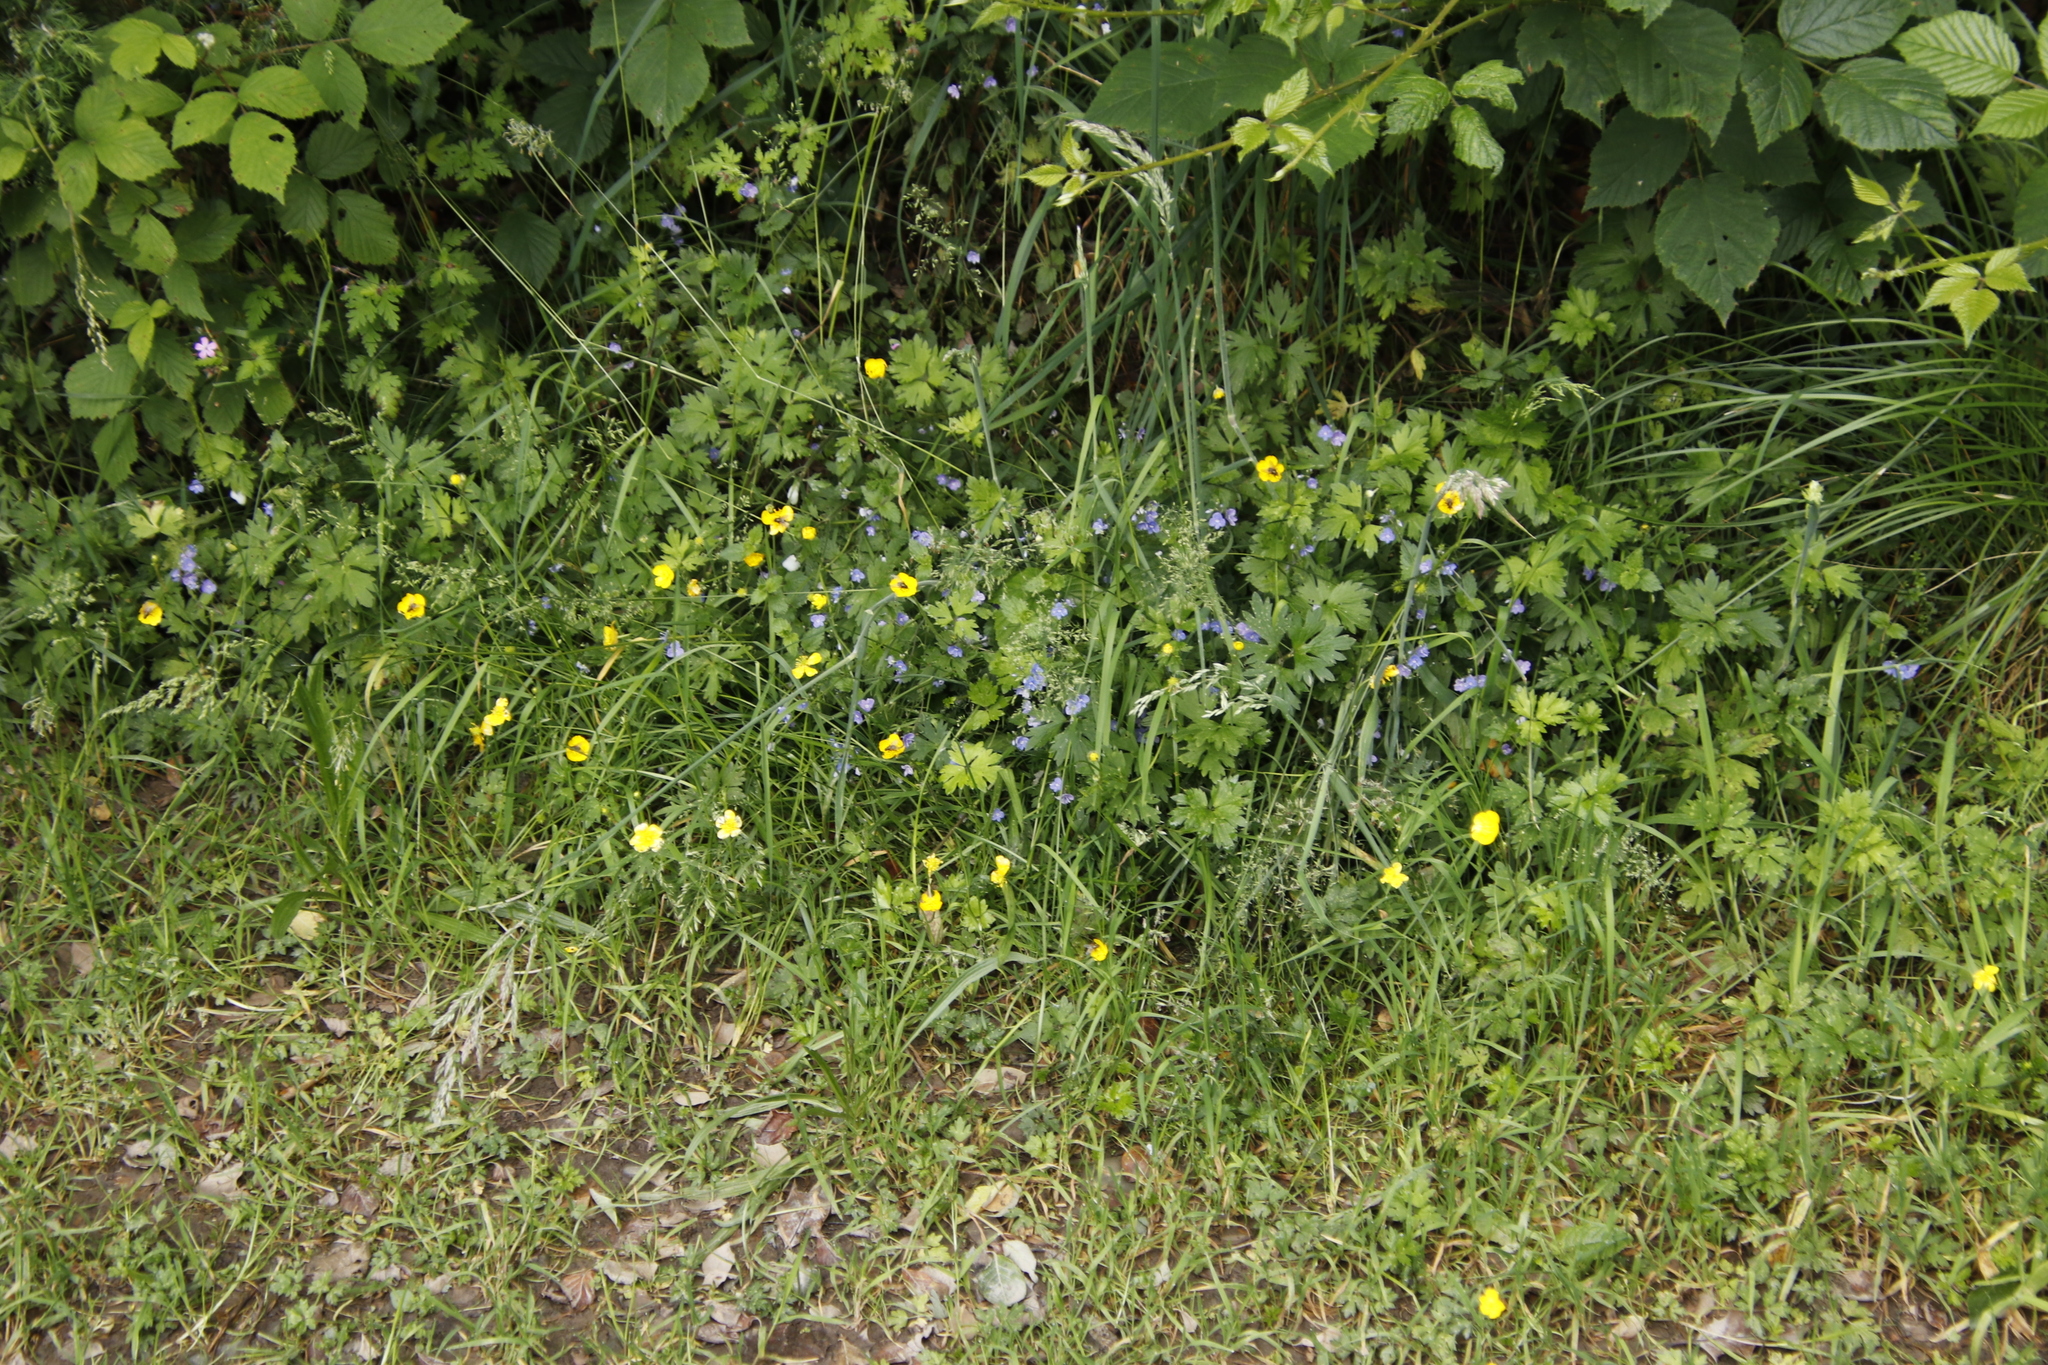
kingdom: Plantae
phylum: Tracheophyta
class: Magnoliopsida
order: Geraniales
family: Geraniaceae
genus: Geranium
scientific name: Geranium robertianum
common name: Herb-robert
